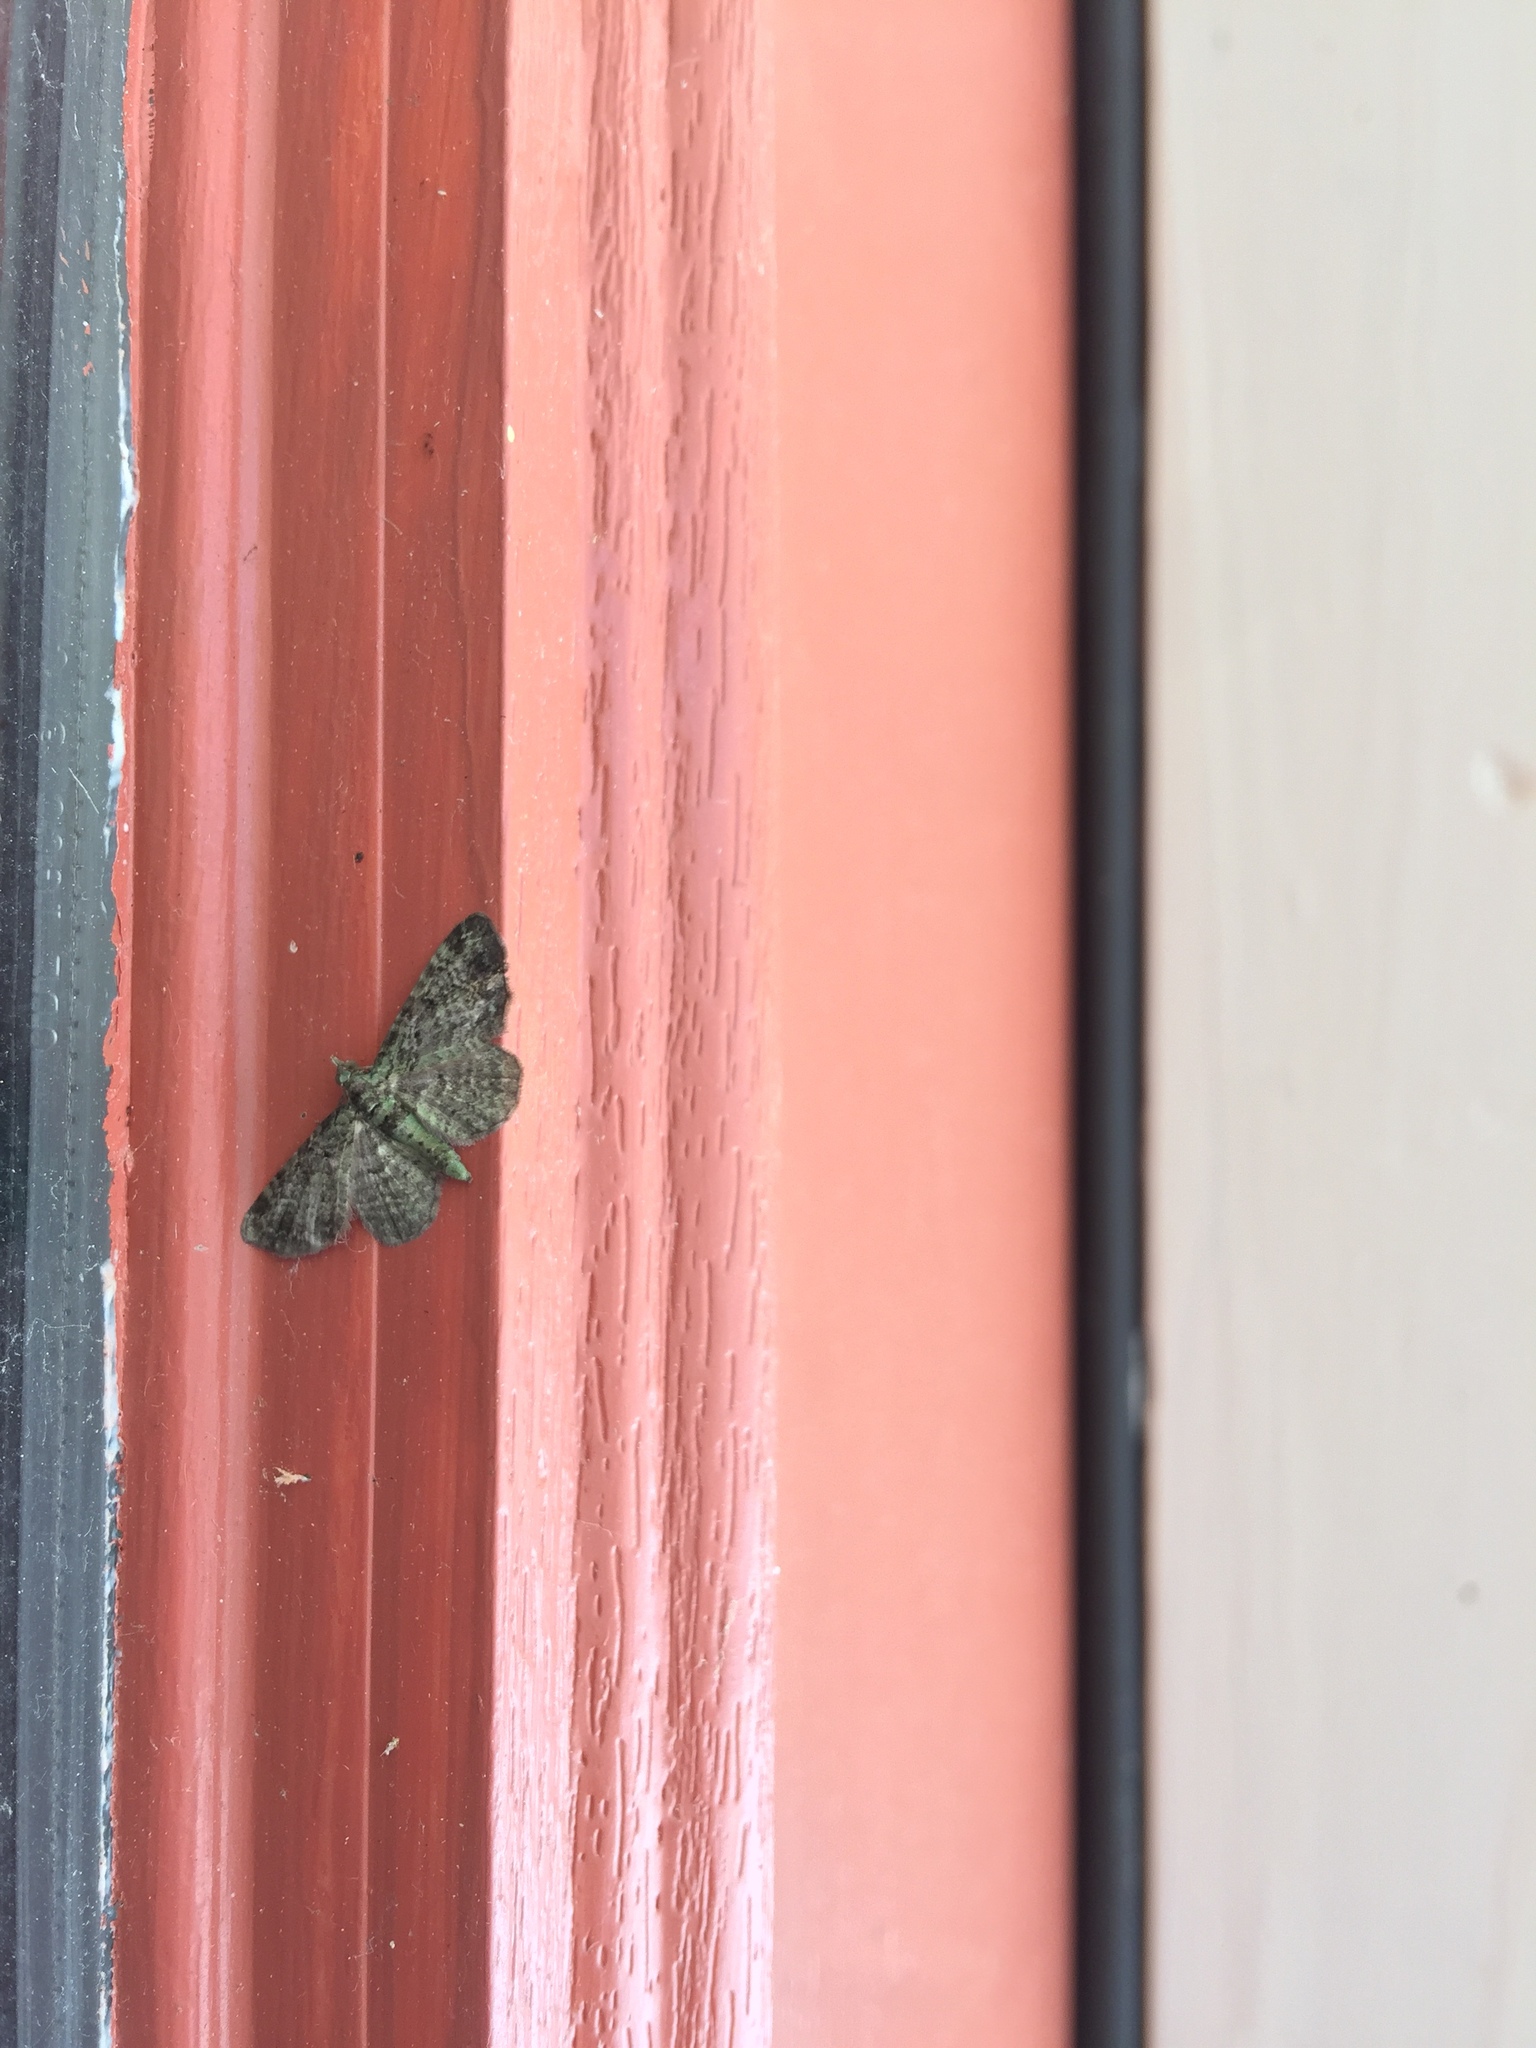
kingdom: Animalia
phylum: Arthropoda
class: Insecta
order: Lepidoptera
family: Geometridae
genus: Pasiphila
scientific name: Pasiphila rectangulata
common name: Green pug
